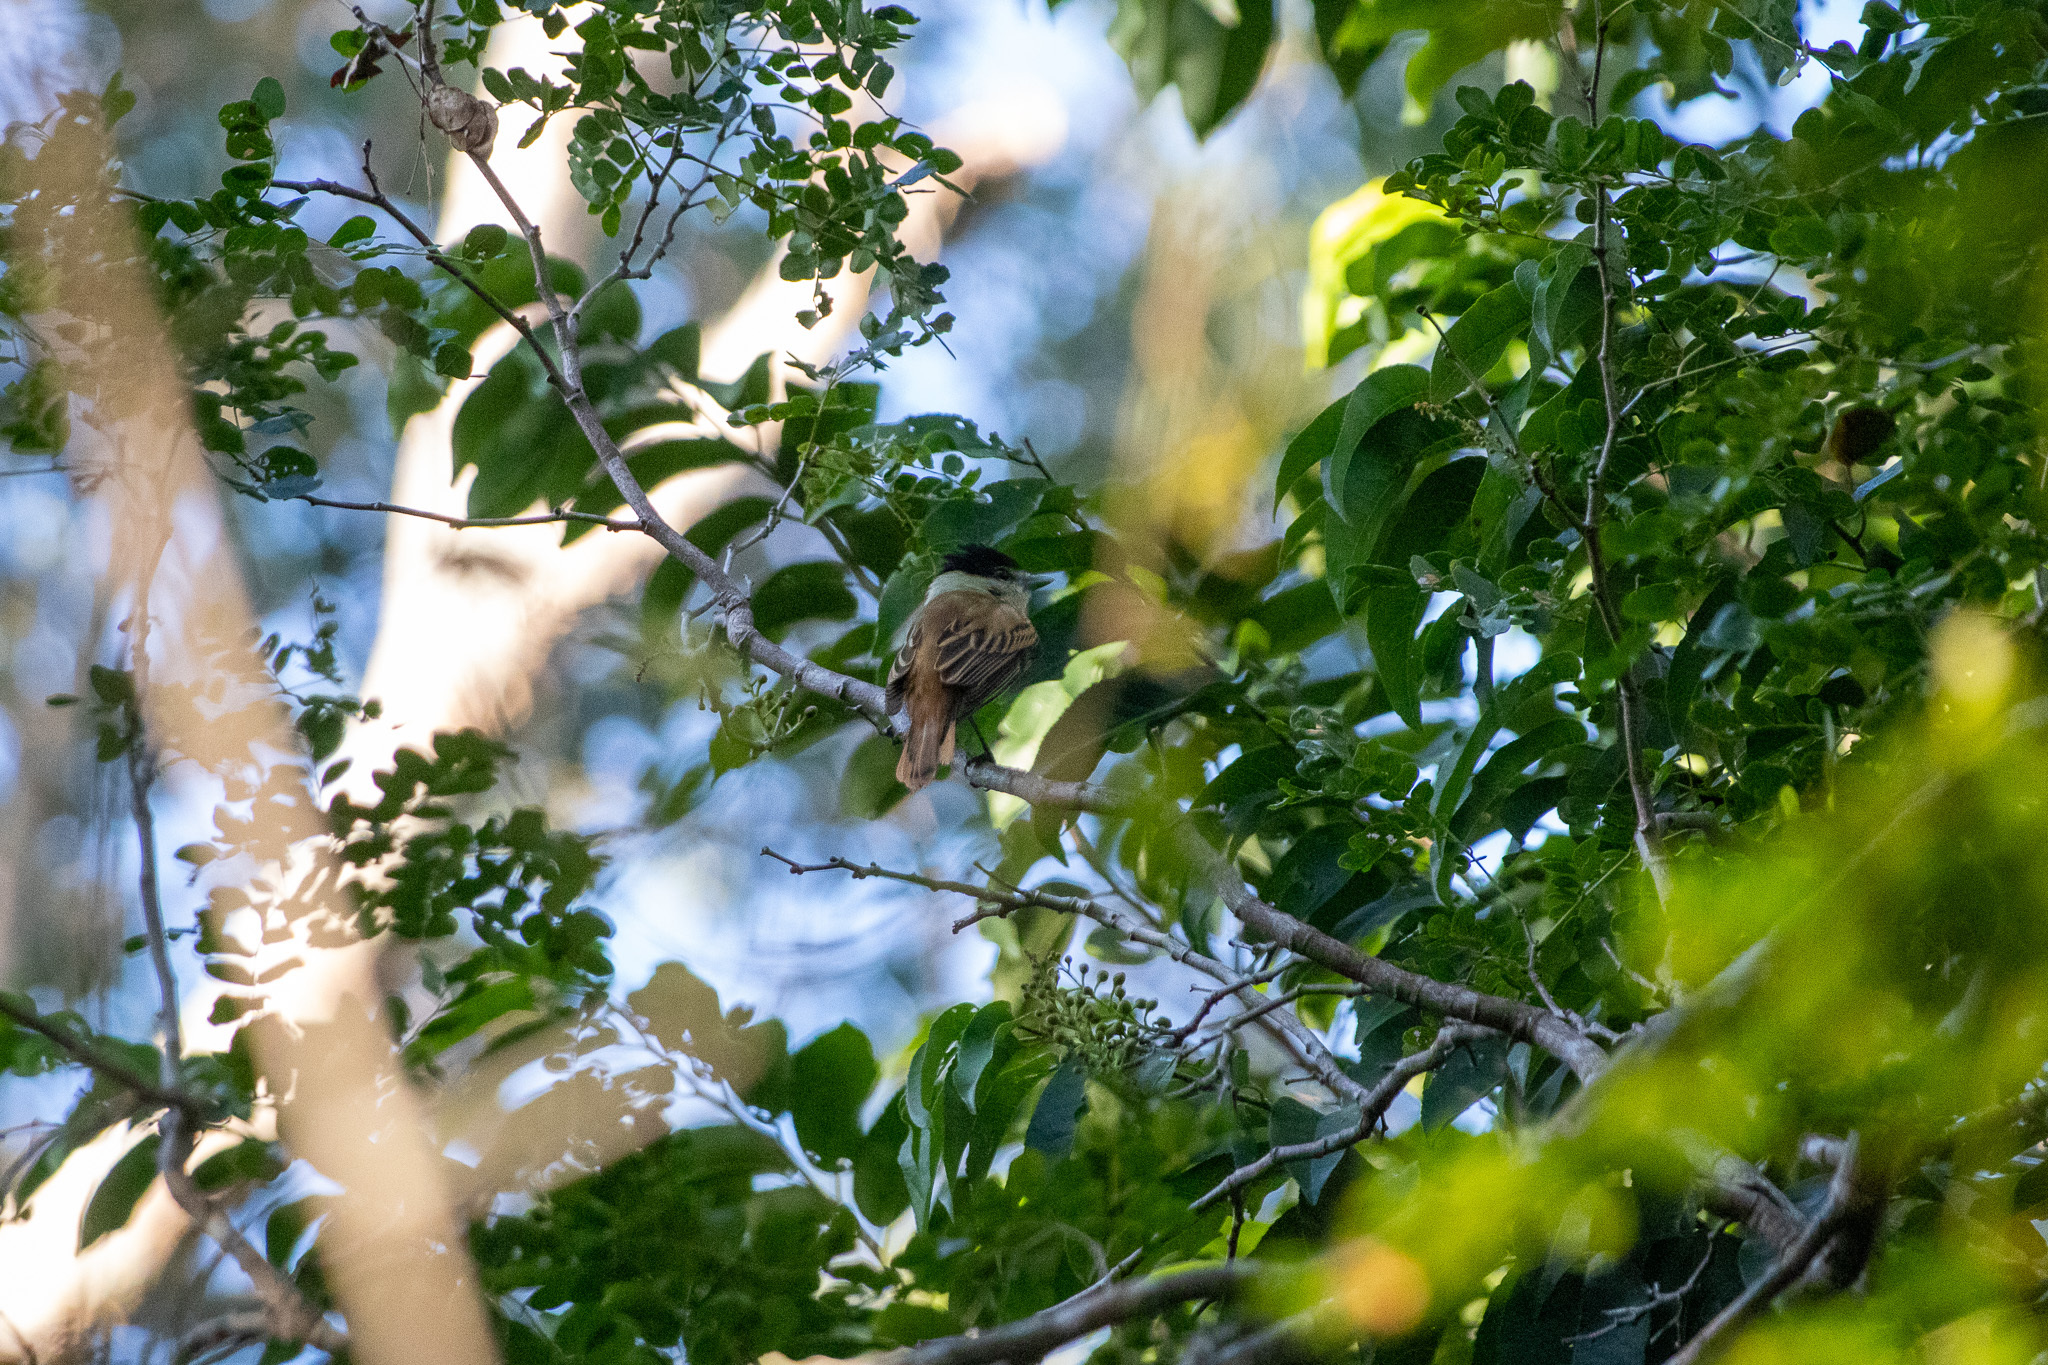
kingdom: Animalia
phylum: Chordata
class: Aves
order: Passeriformes
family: Cotingidae
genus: Pachyramphus
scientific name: Pachyramphus major
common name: Gray-collared becard
